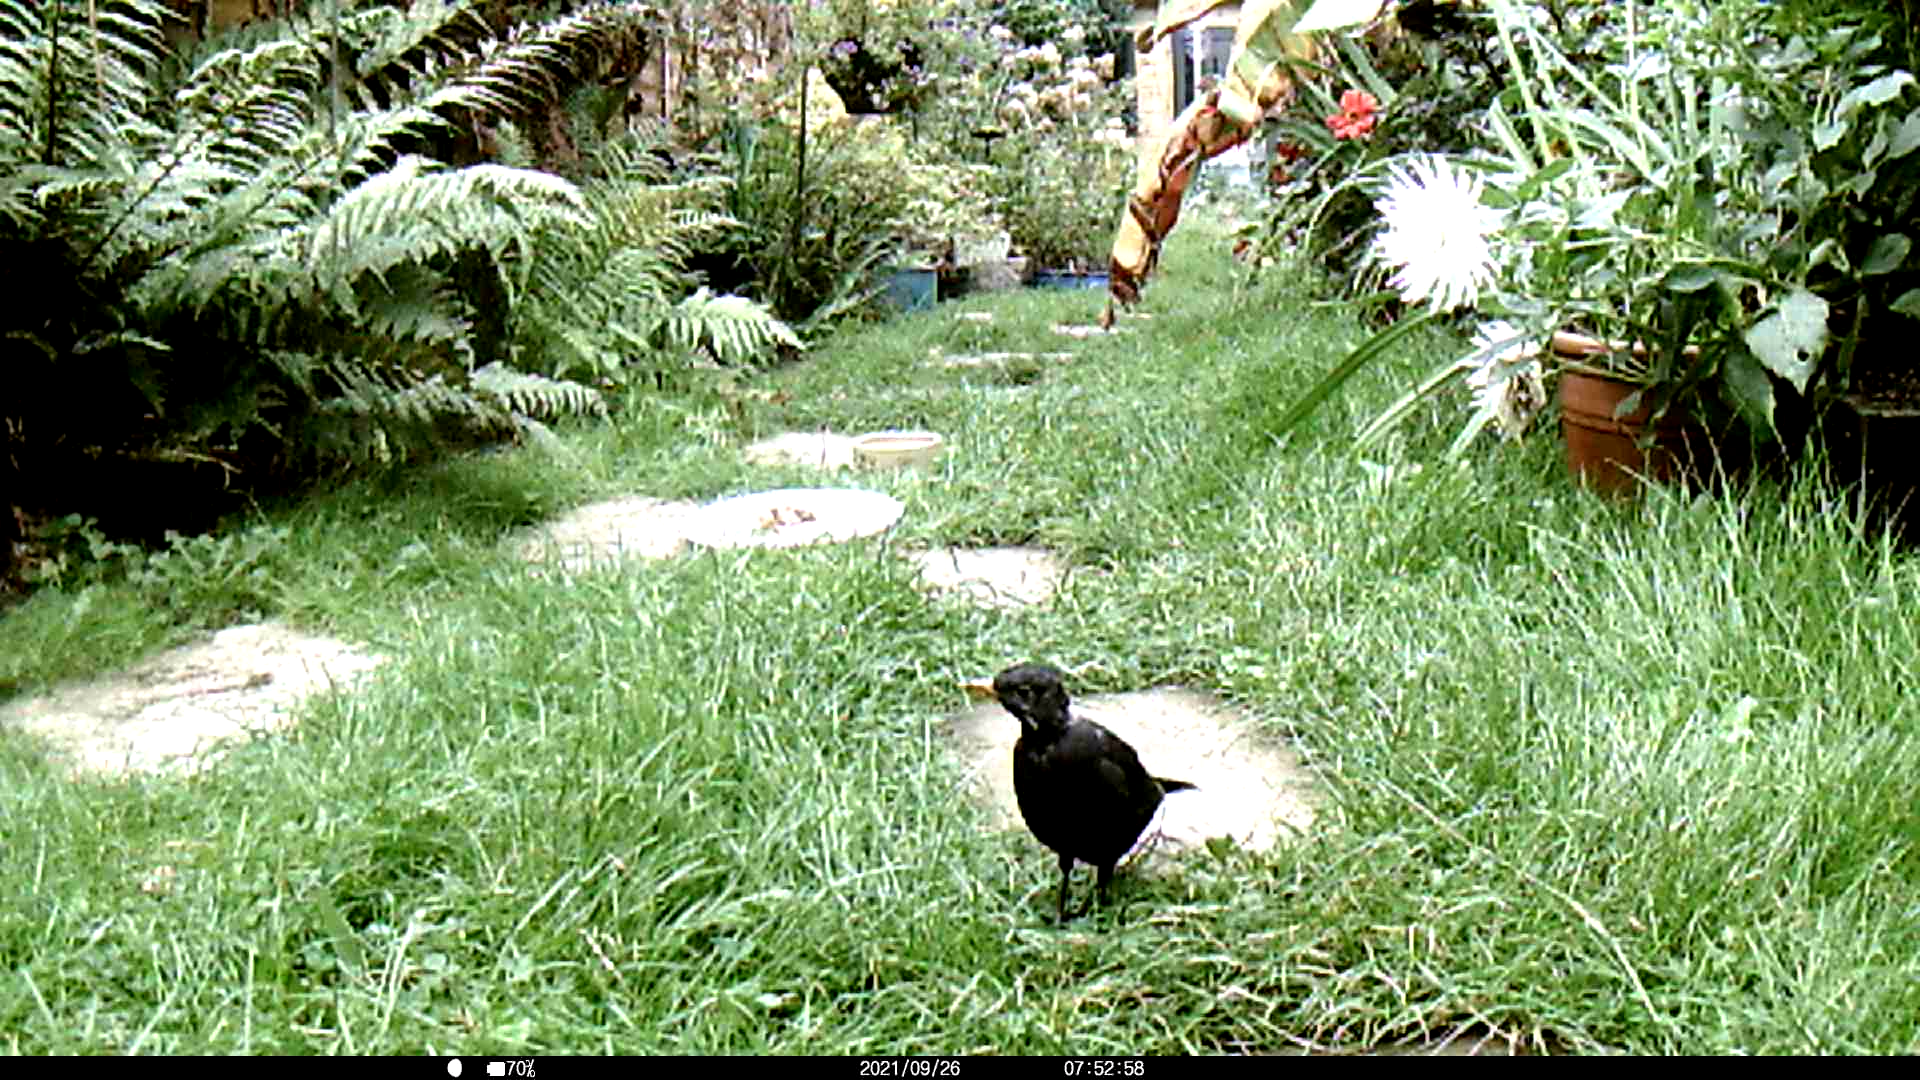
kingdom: Animalia
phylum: Chordata
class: Aves
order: Passeriformes
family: Turdidae
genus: Turdus
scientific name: Turdus merula
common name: Common blackbird
